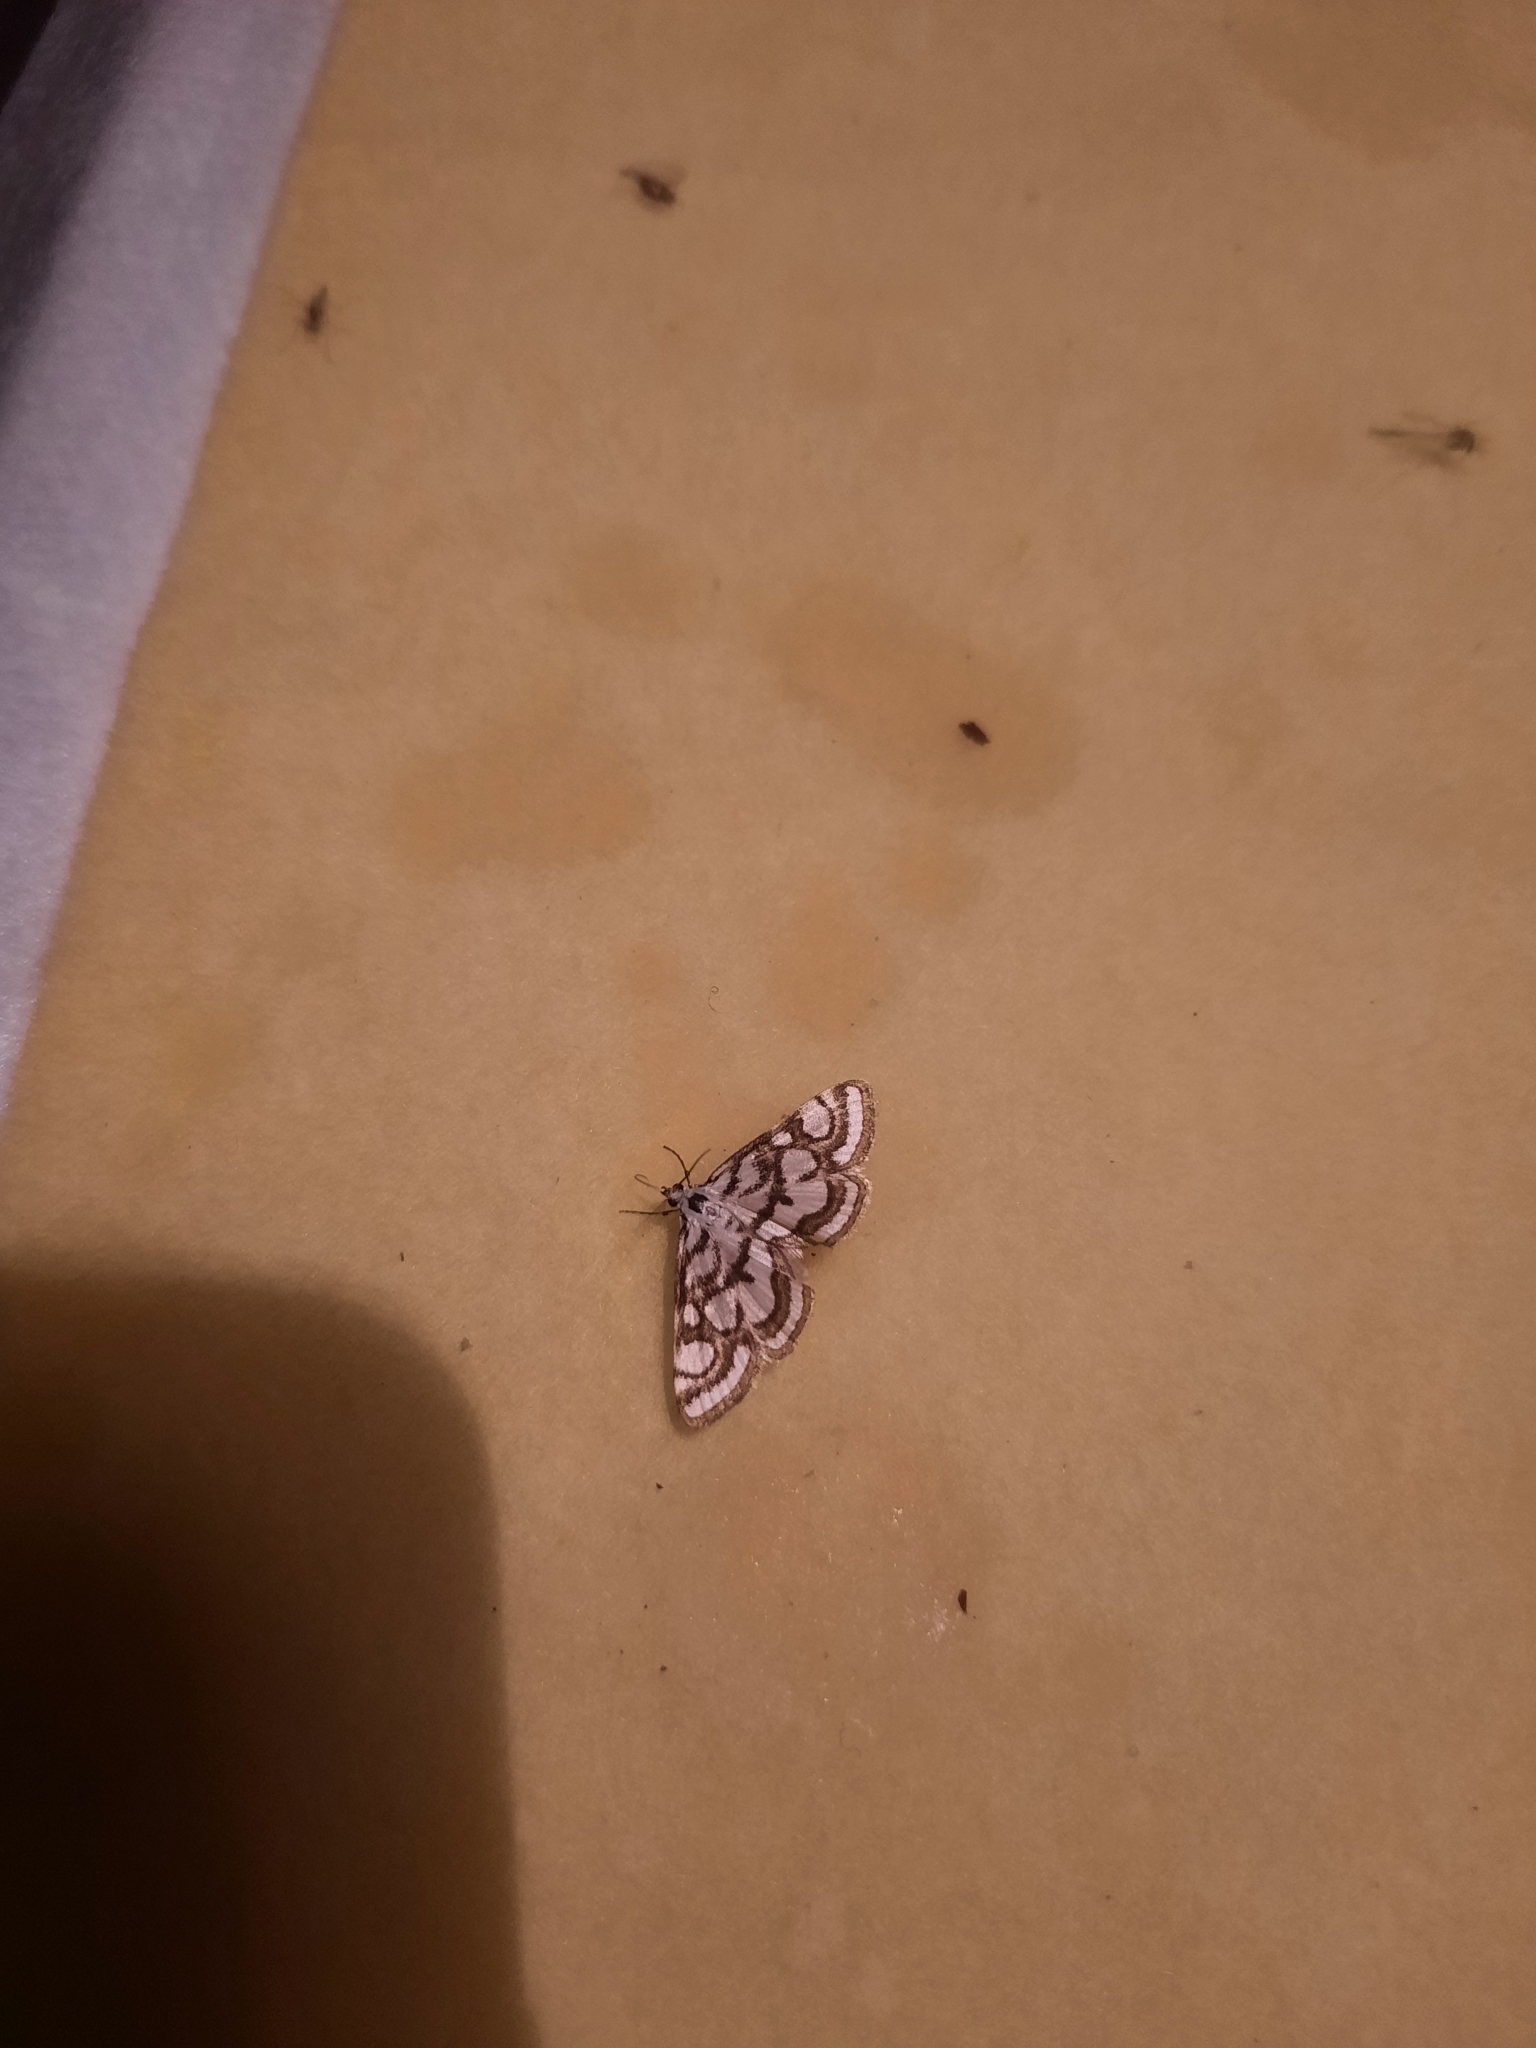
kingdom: Animalia
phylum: Arthropoda
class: Insecta
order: Lepidoptera
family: Crambidae
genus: Nymphula
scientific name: Nymphula nitidulata
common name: Beautiful china mark
